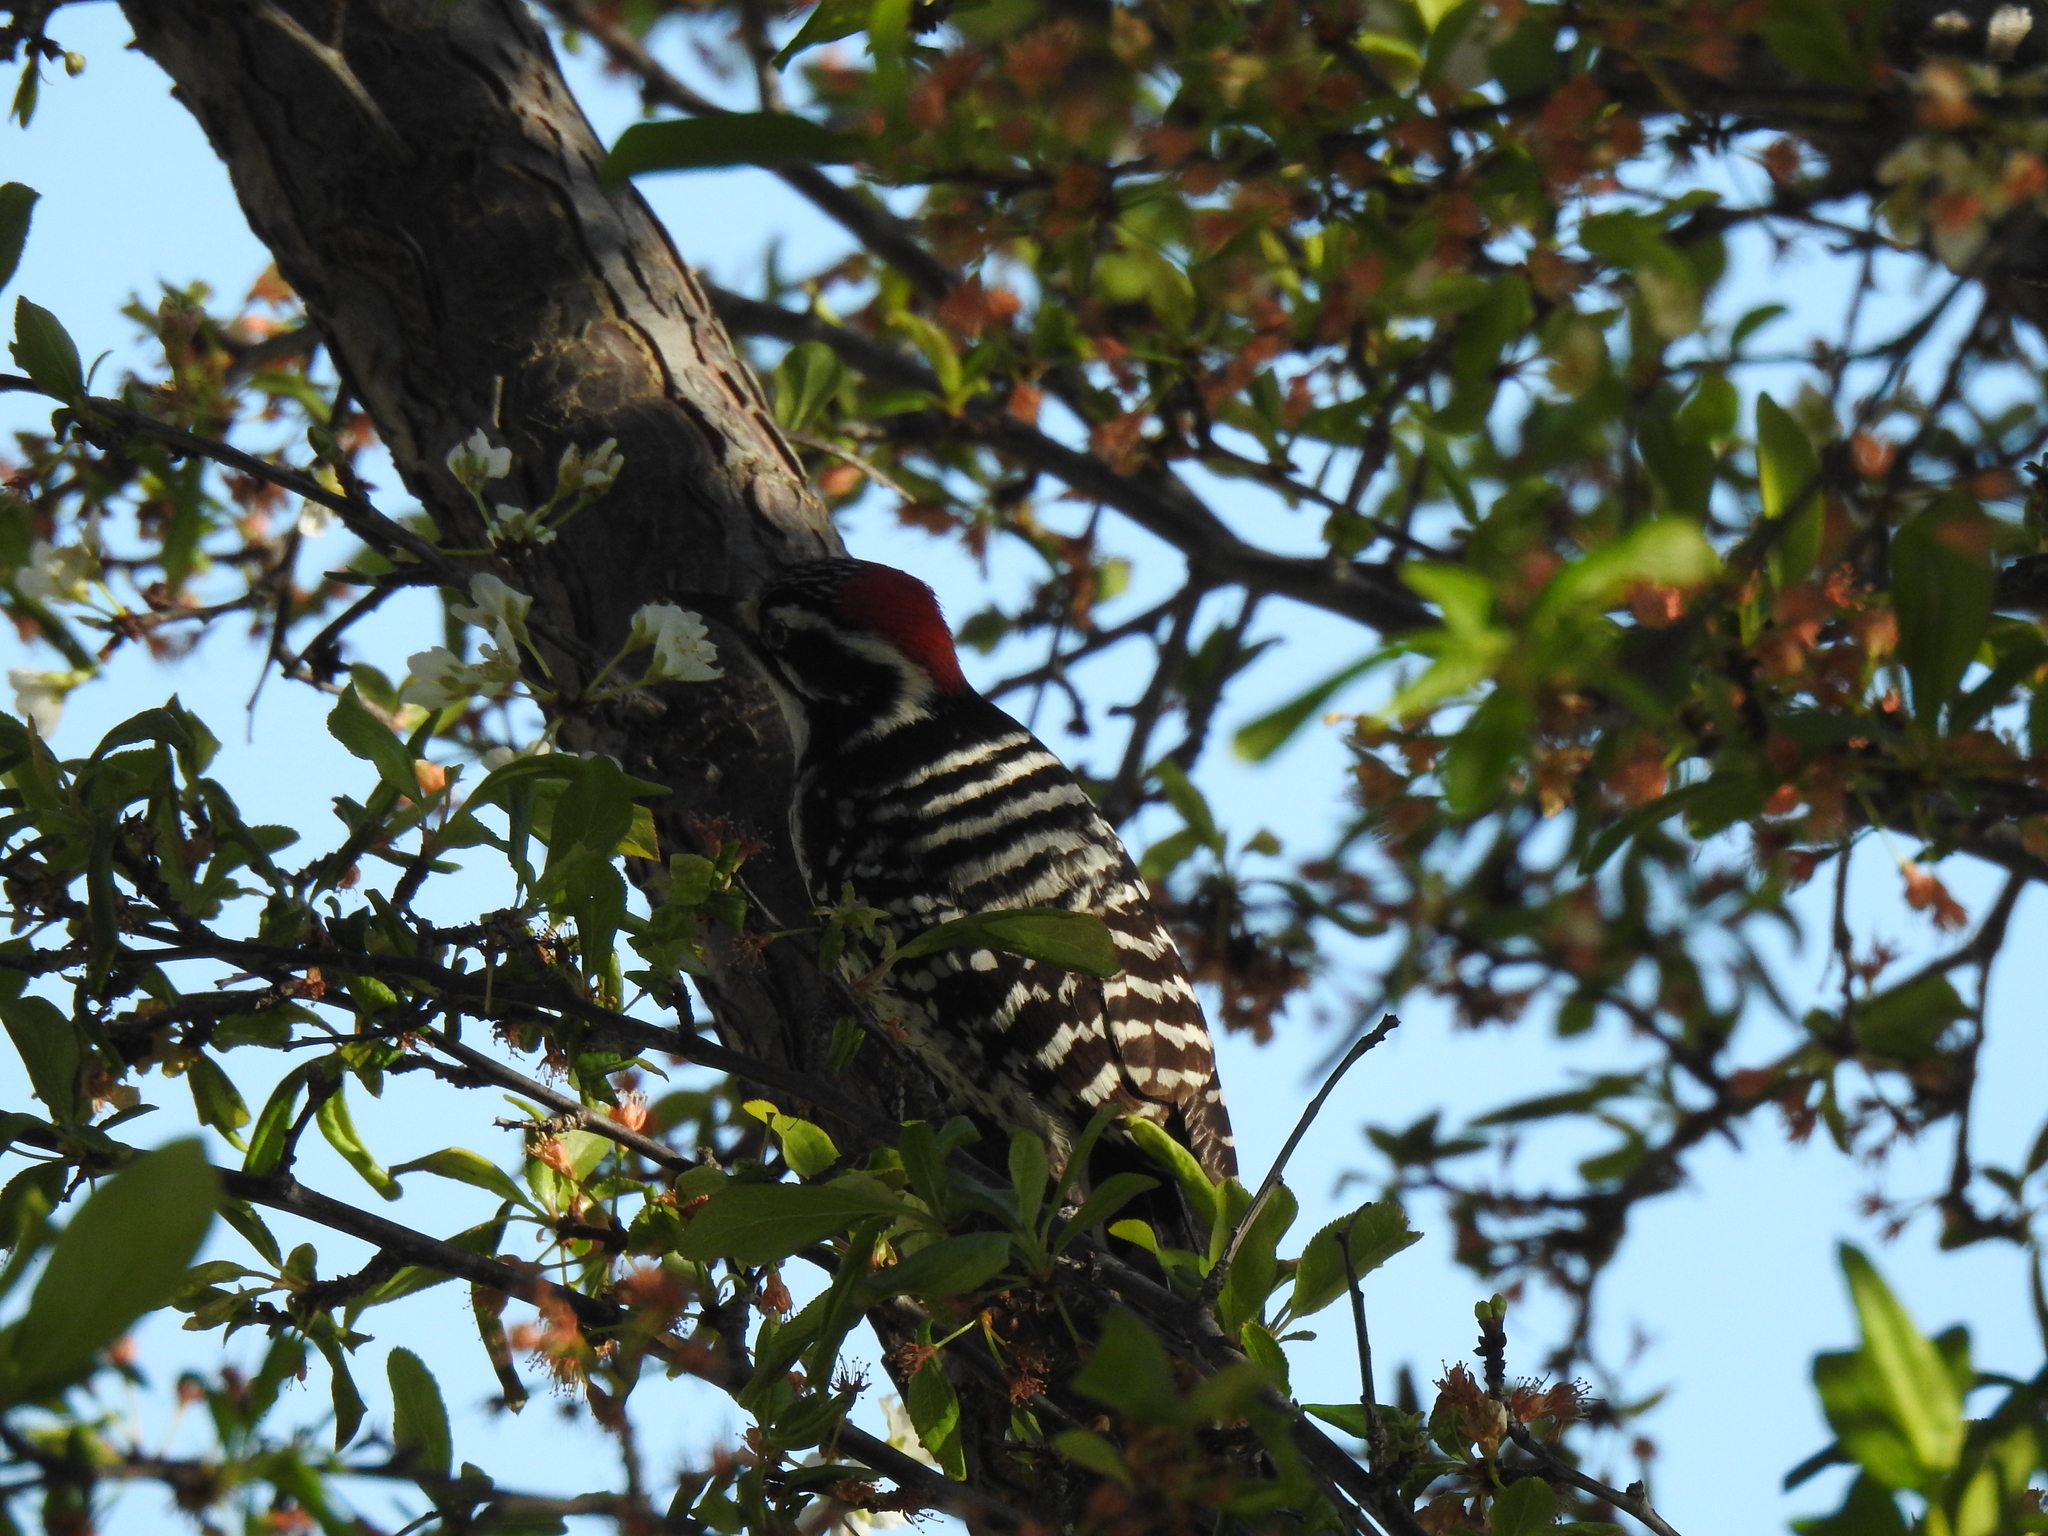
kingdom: Animalia
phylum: Chordata
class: Aves
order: Piciformes
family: Picidae
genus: Dryobates
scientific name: Dryobates nuttallii
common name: Nuttall's woodpecker
